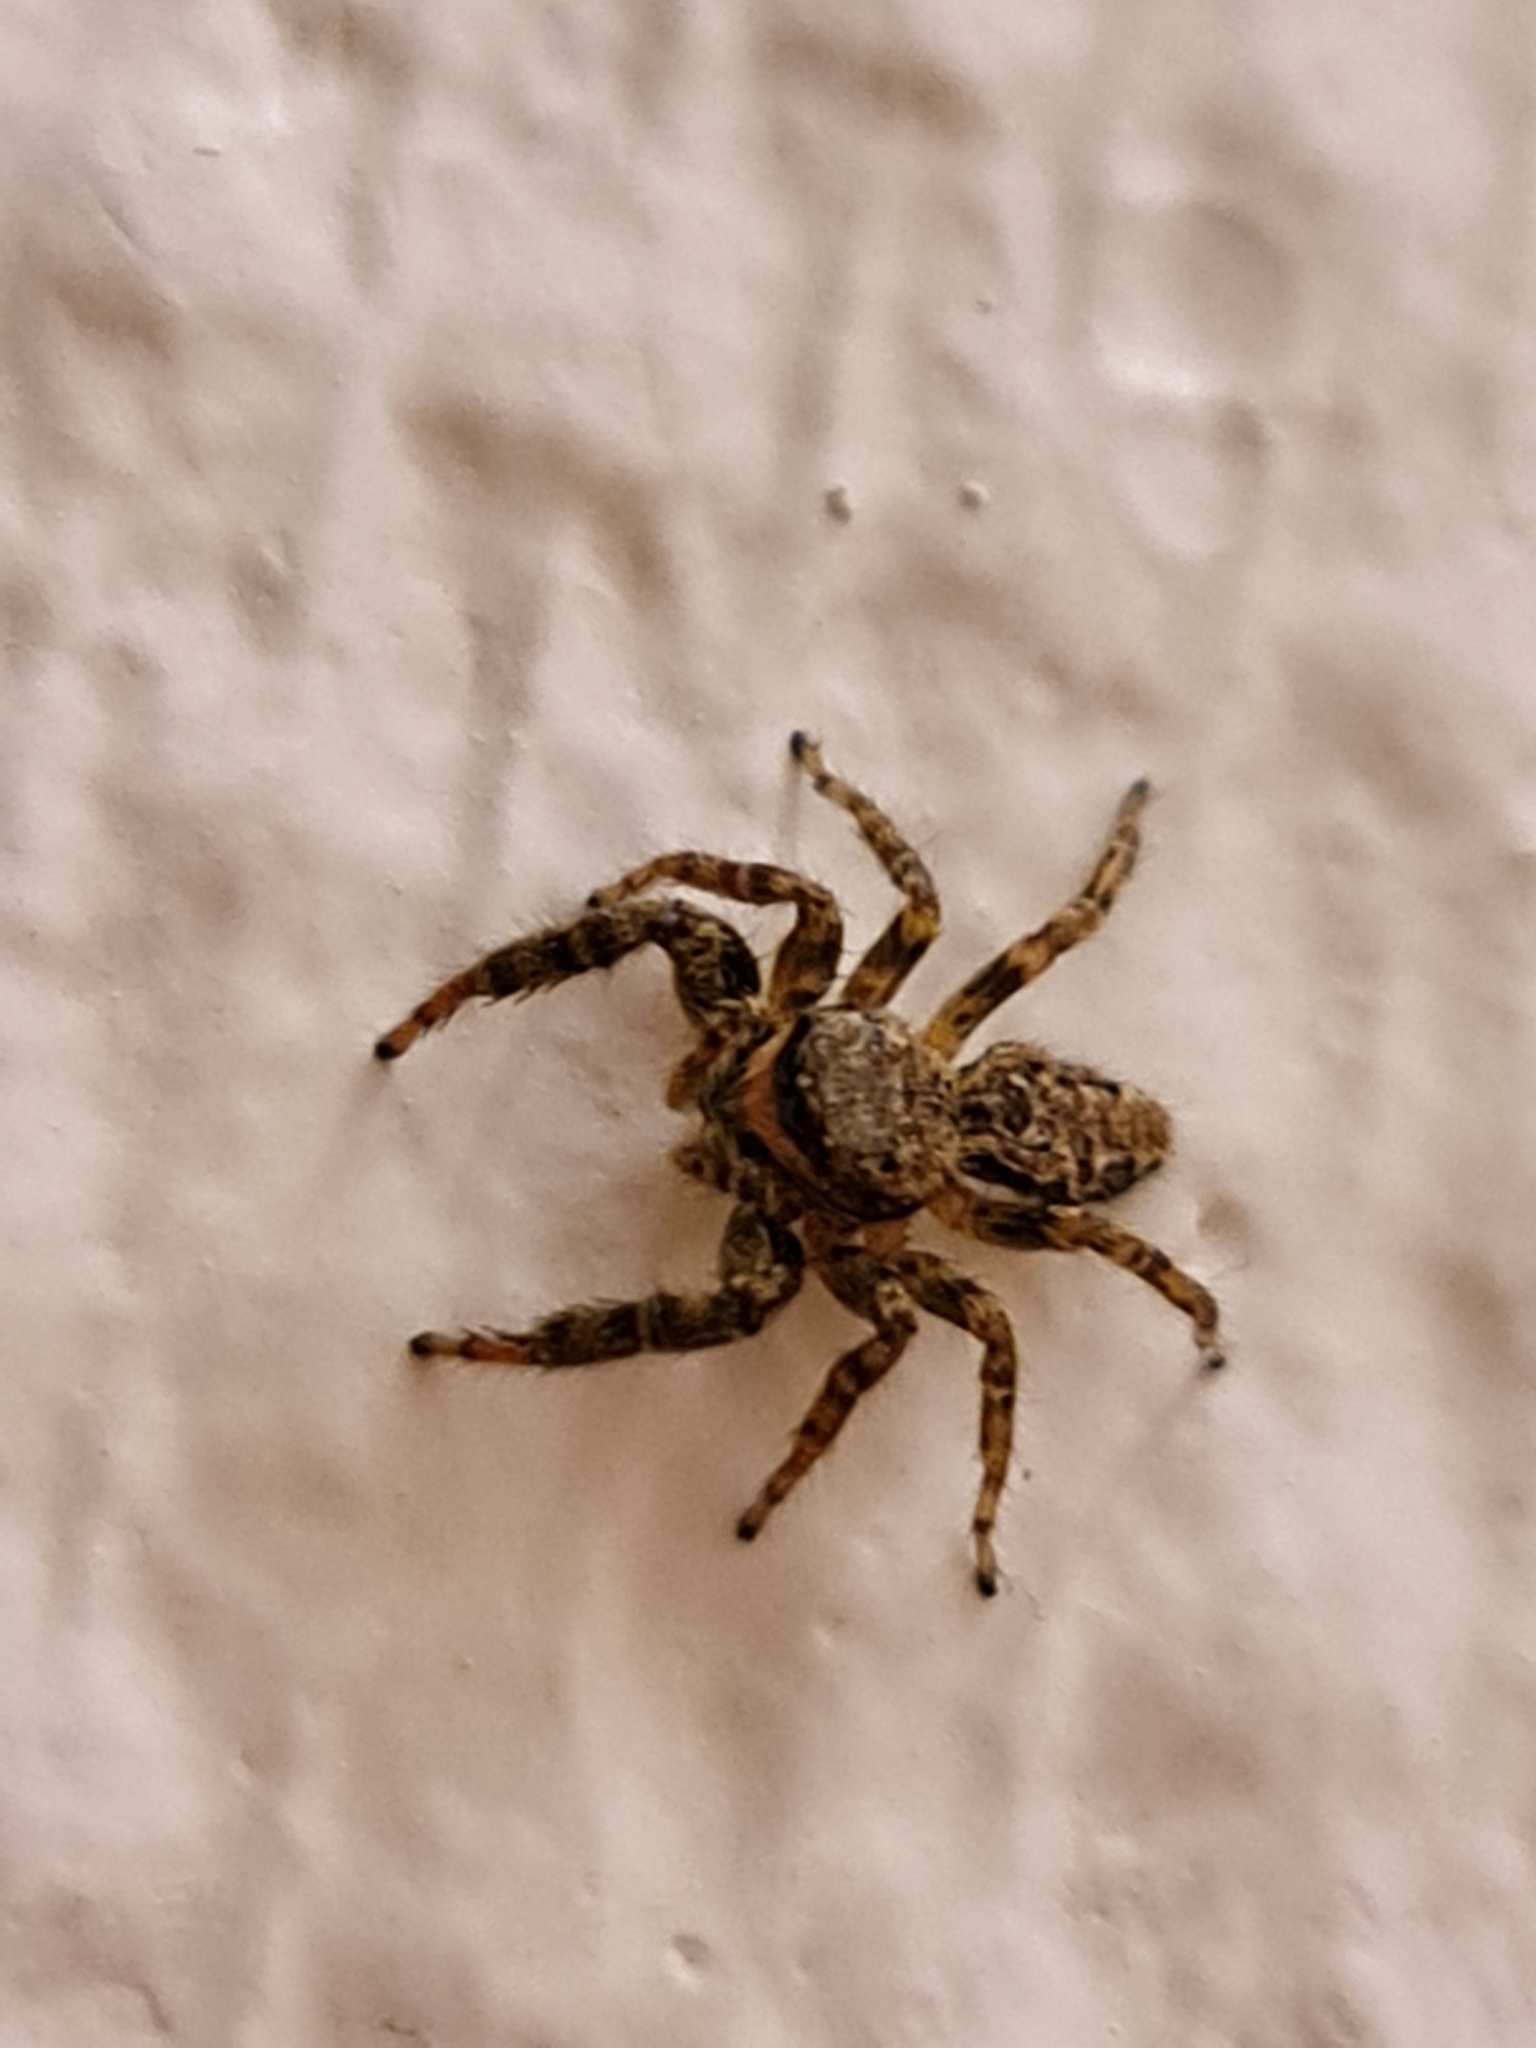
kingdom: Animalia
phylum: Arthropoda
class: Arachnida
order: Araneae
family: Salticidae
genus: Marpissa
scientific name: Marpissa muscosa
